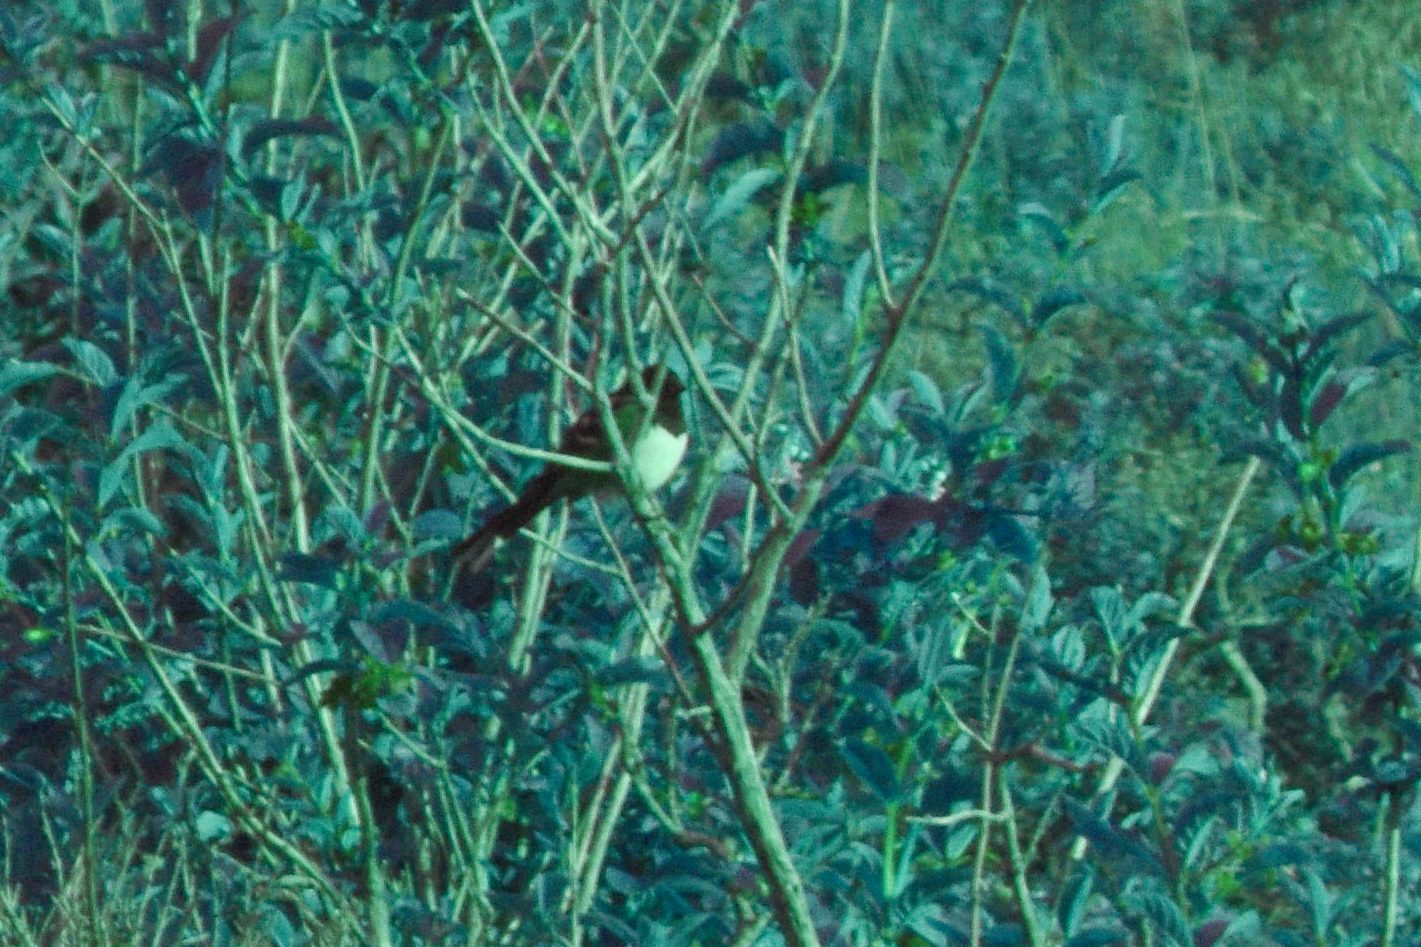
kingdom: Animalia
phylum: Chordata
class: Aves
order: Passeriformes
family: Passerellidae
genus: Pipilo
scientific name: Pipilo maculatus
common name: Spotted towhee
